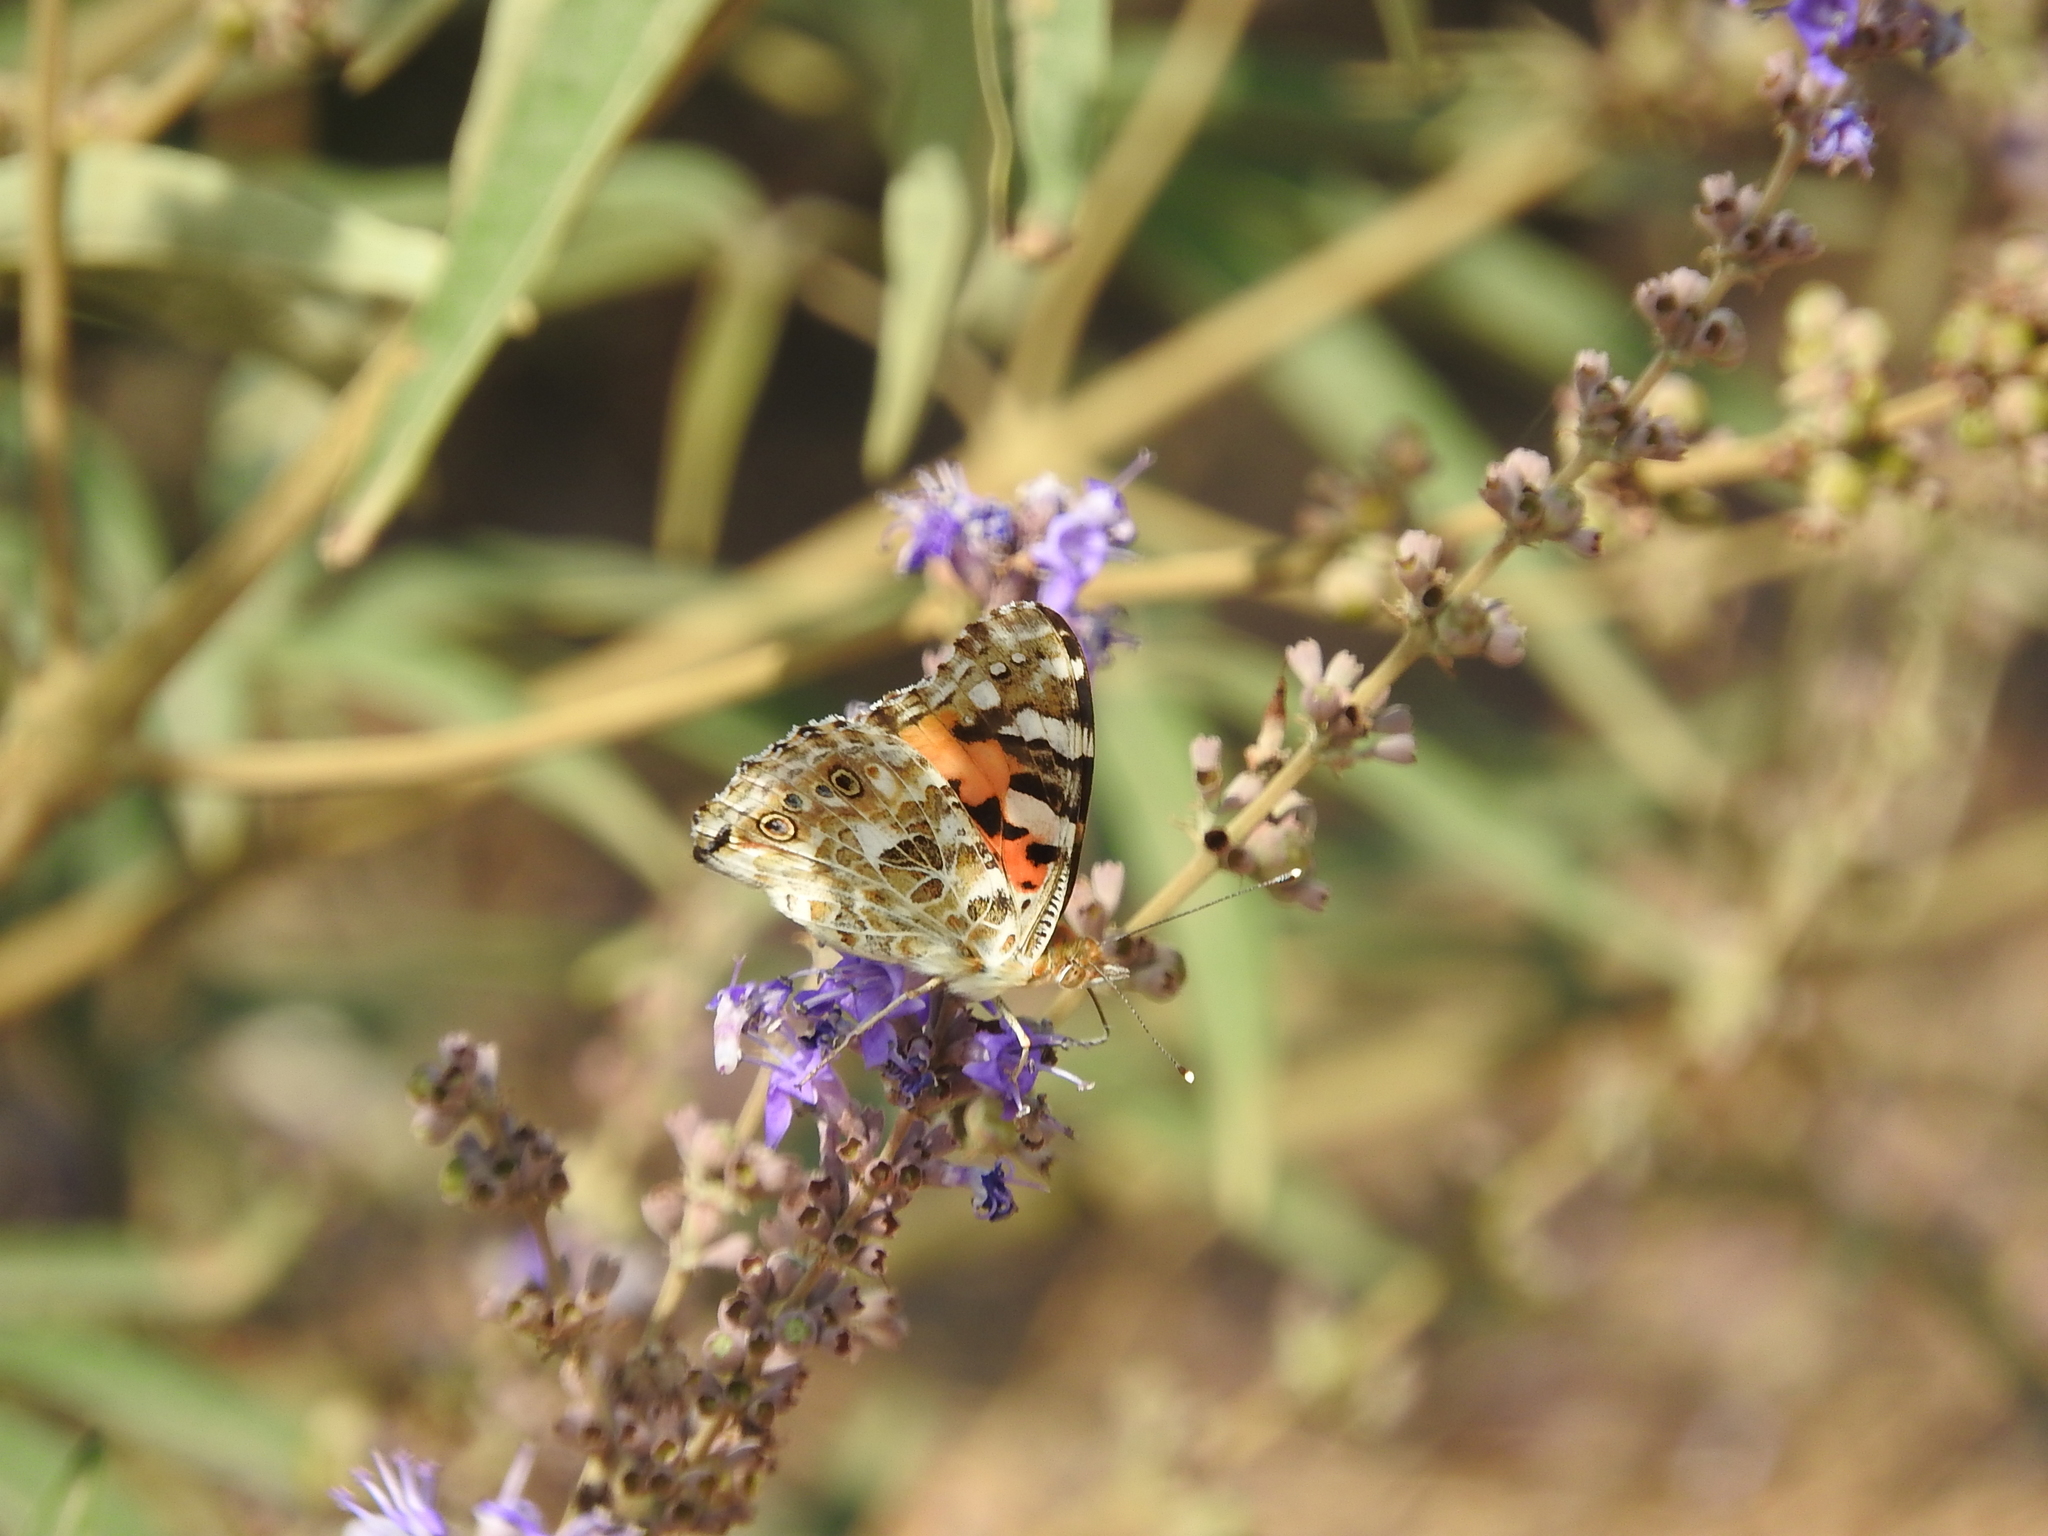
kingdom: Animalia
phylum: Arthropoda
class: Insecta
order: Lepidoptera
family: Nymphalidae
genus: Vanessa
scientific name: Vanessa cardui
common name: Painted lady
